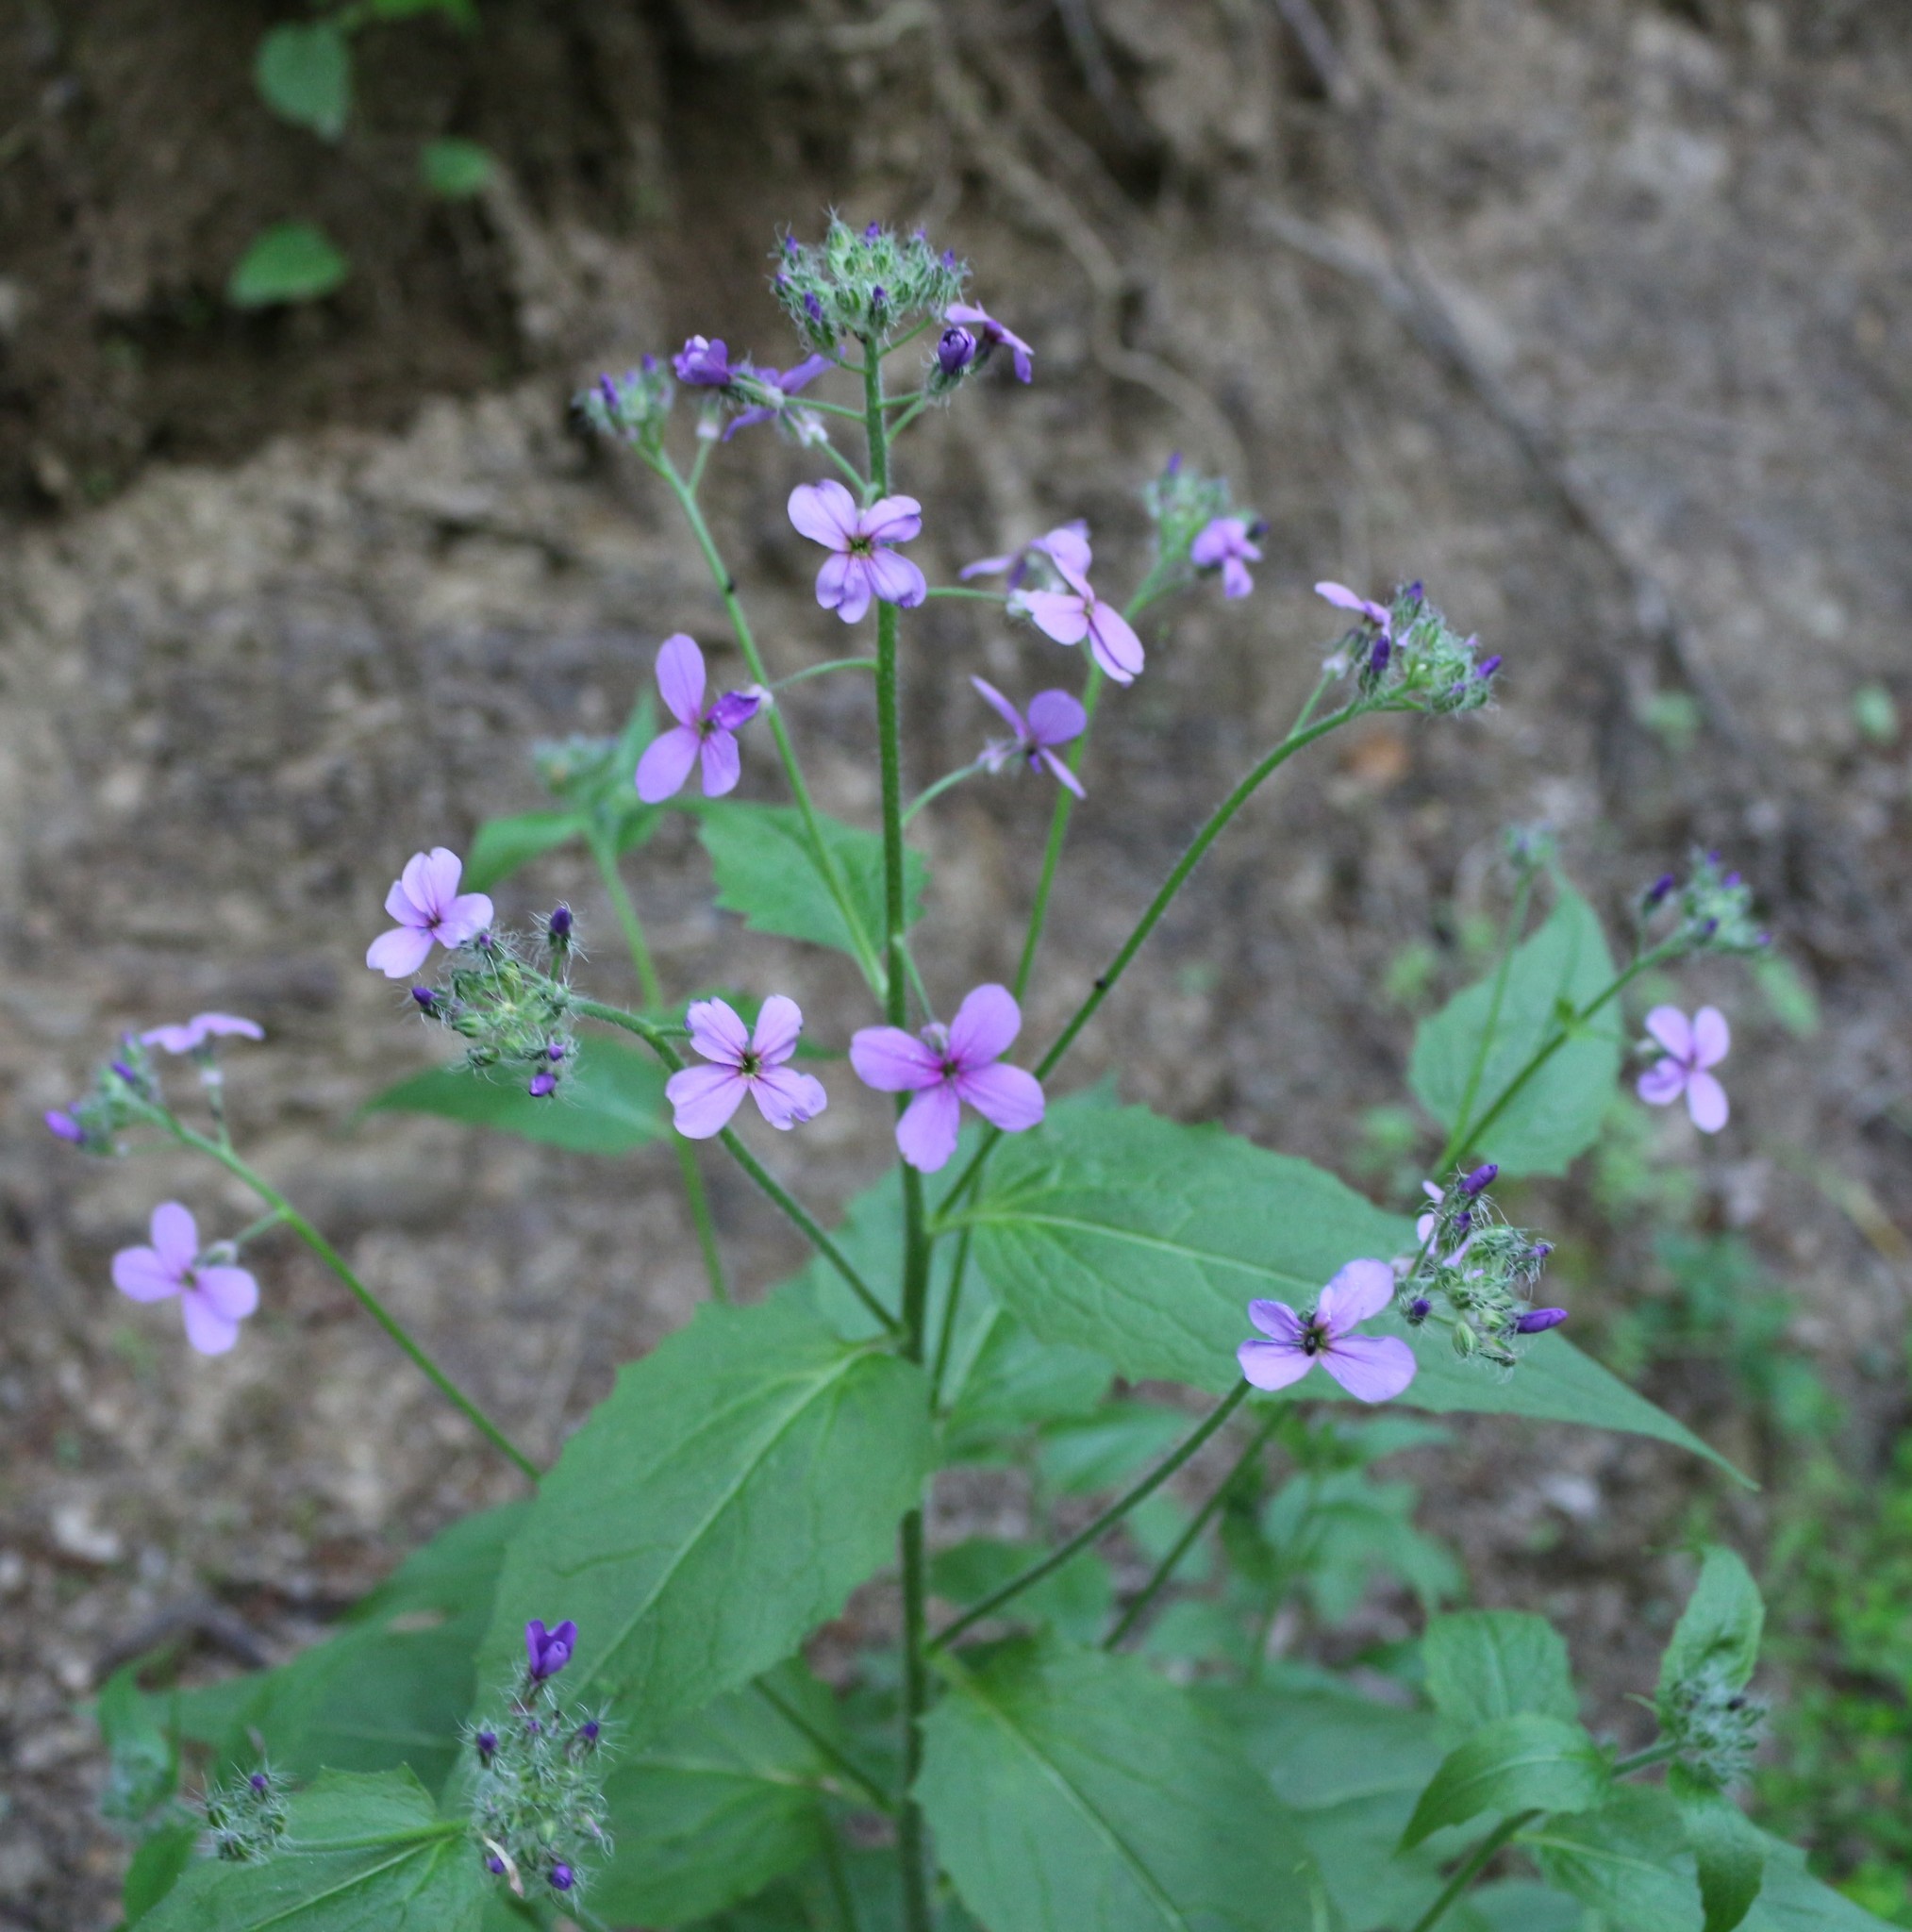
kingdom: Plantae
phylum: Tracheophyta
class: Magnoliopsida
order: Brassicales
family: Brassicaceae
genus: Hesperis
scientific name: Hesperis matronalis
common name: Dame's-violet
